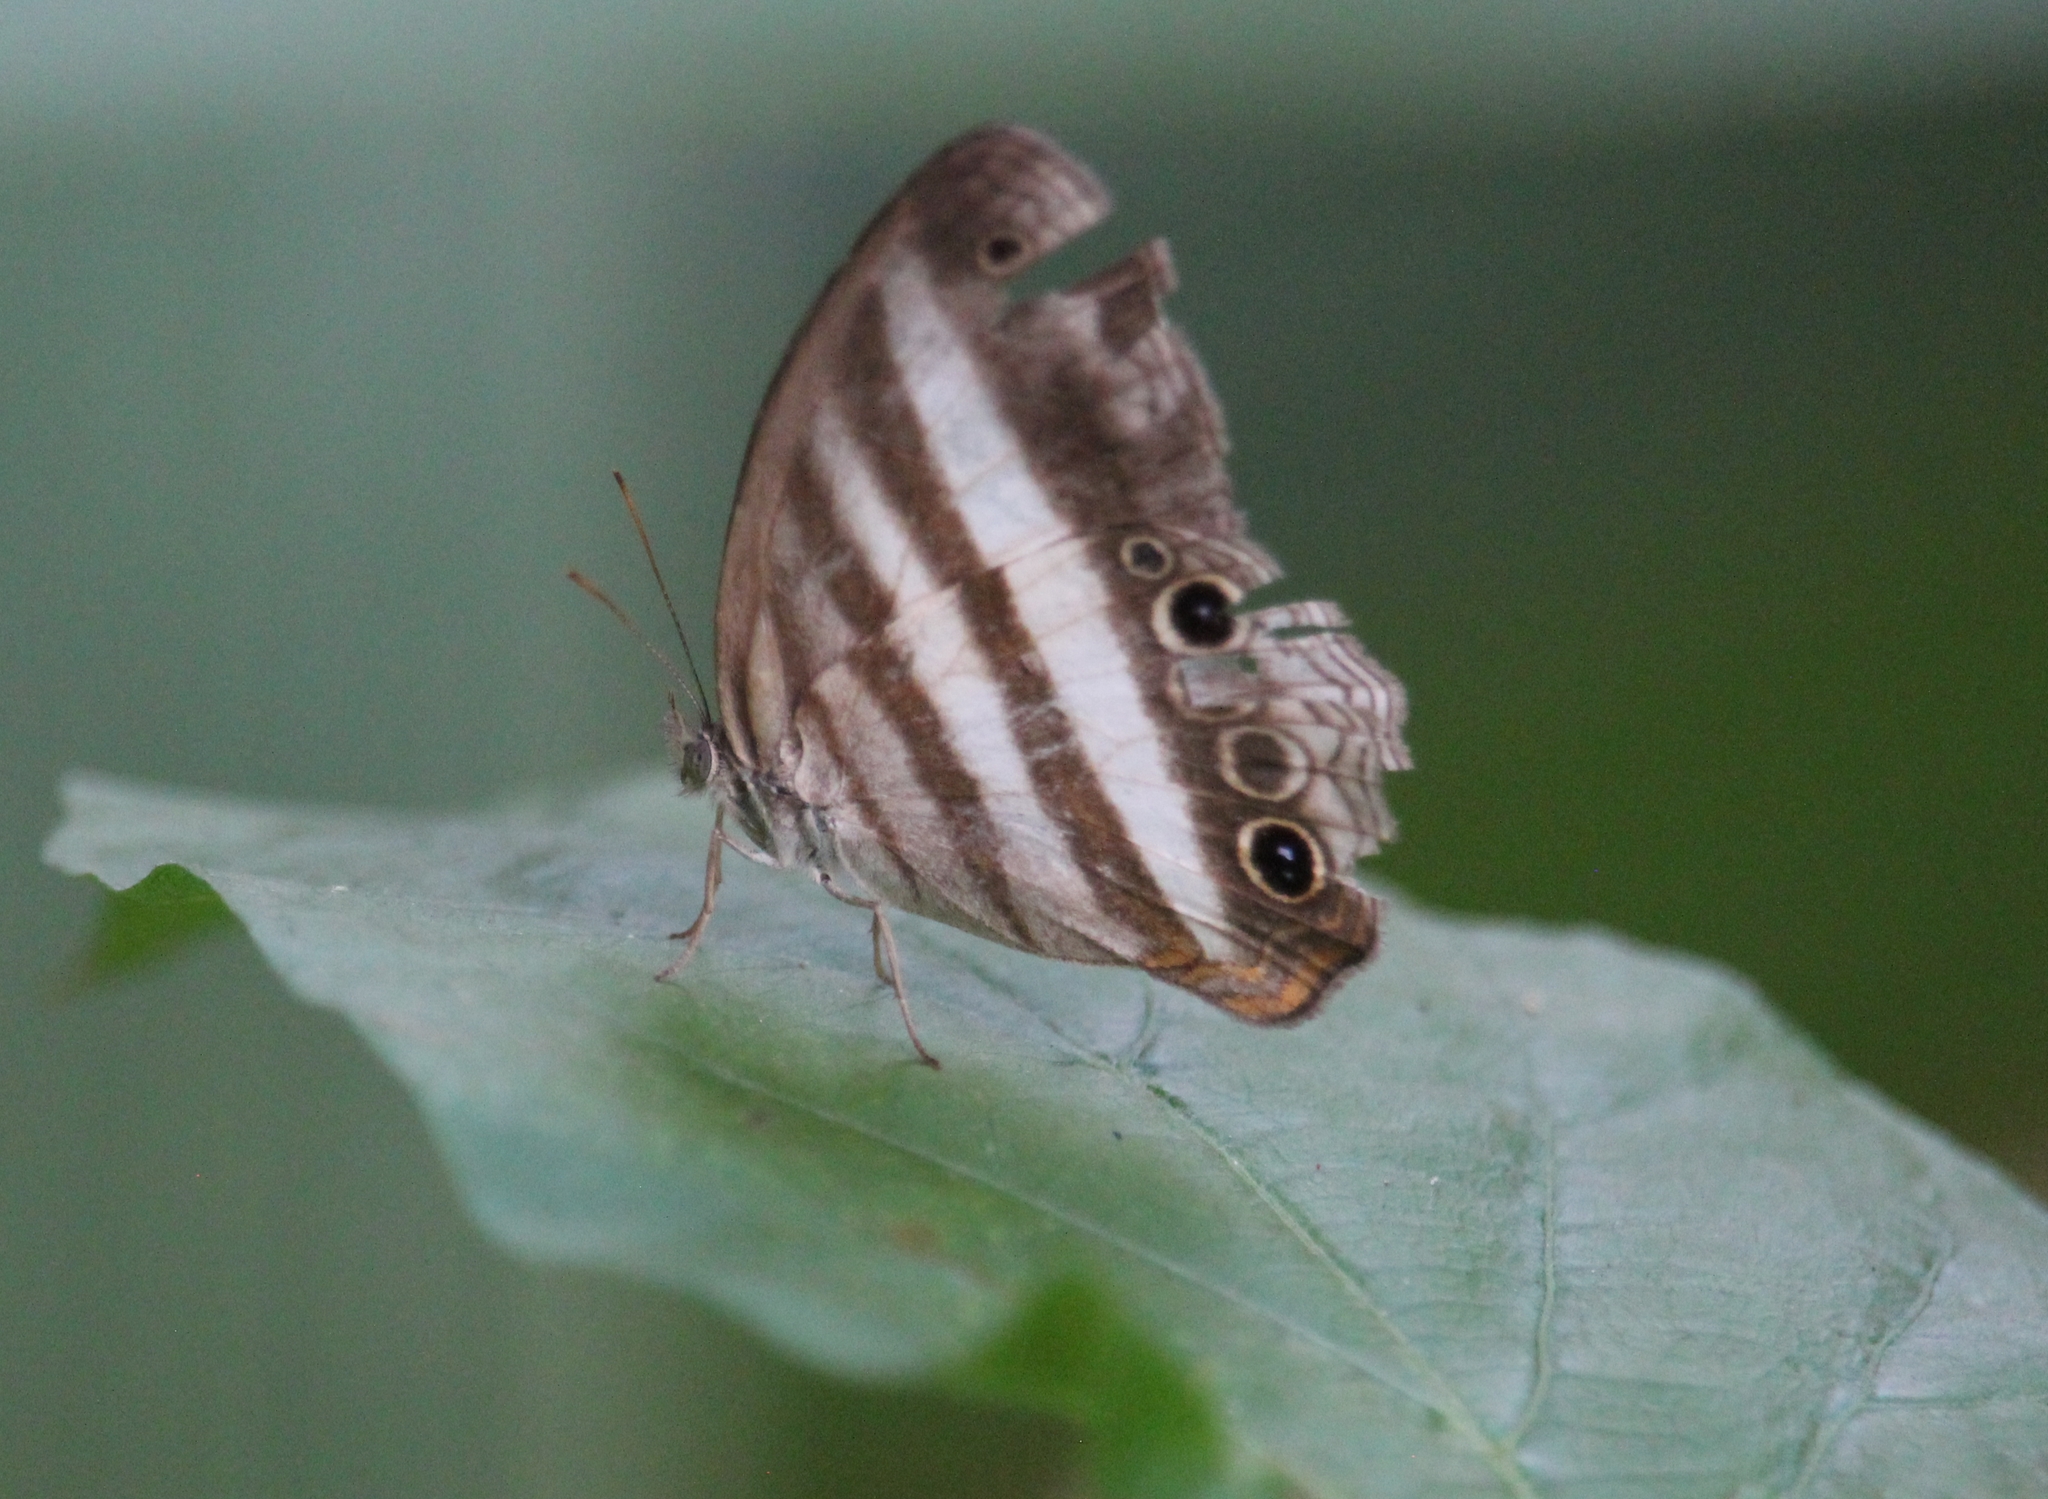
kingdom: Animalia
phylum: Arthropoda
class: Insecta
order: Lepidoptera
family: Nymphalidae
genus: Pareuptychia
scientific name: Pareuptychia hesione
